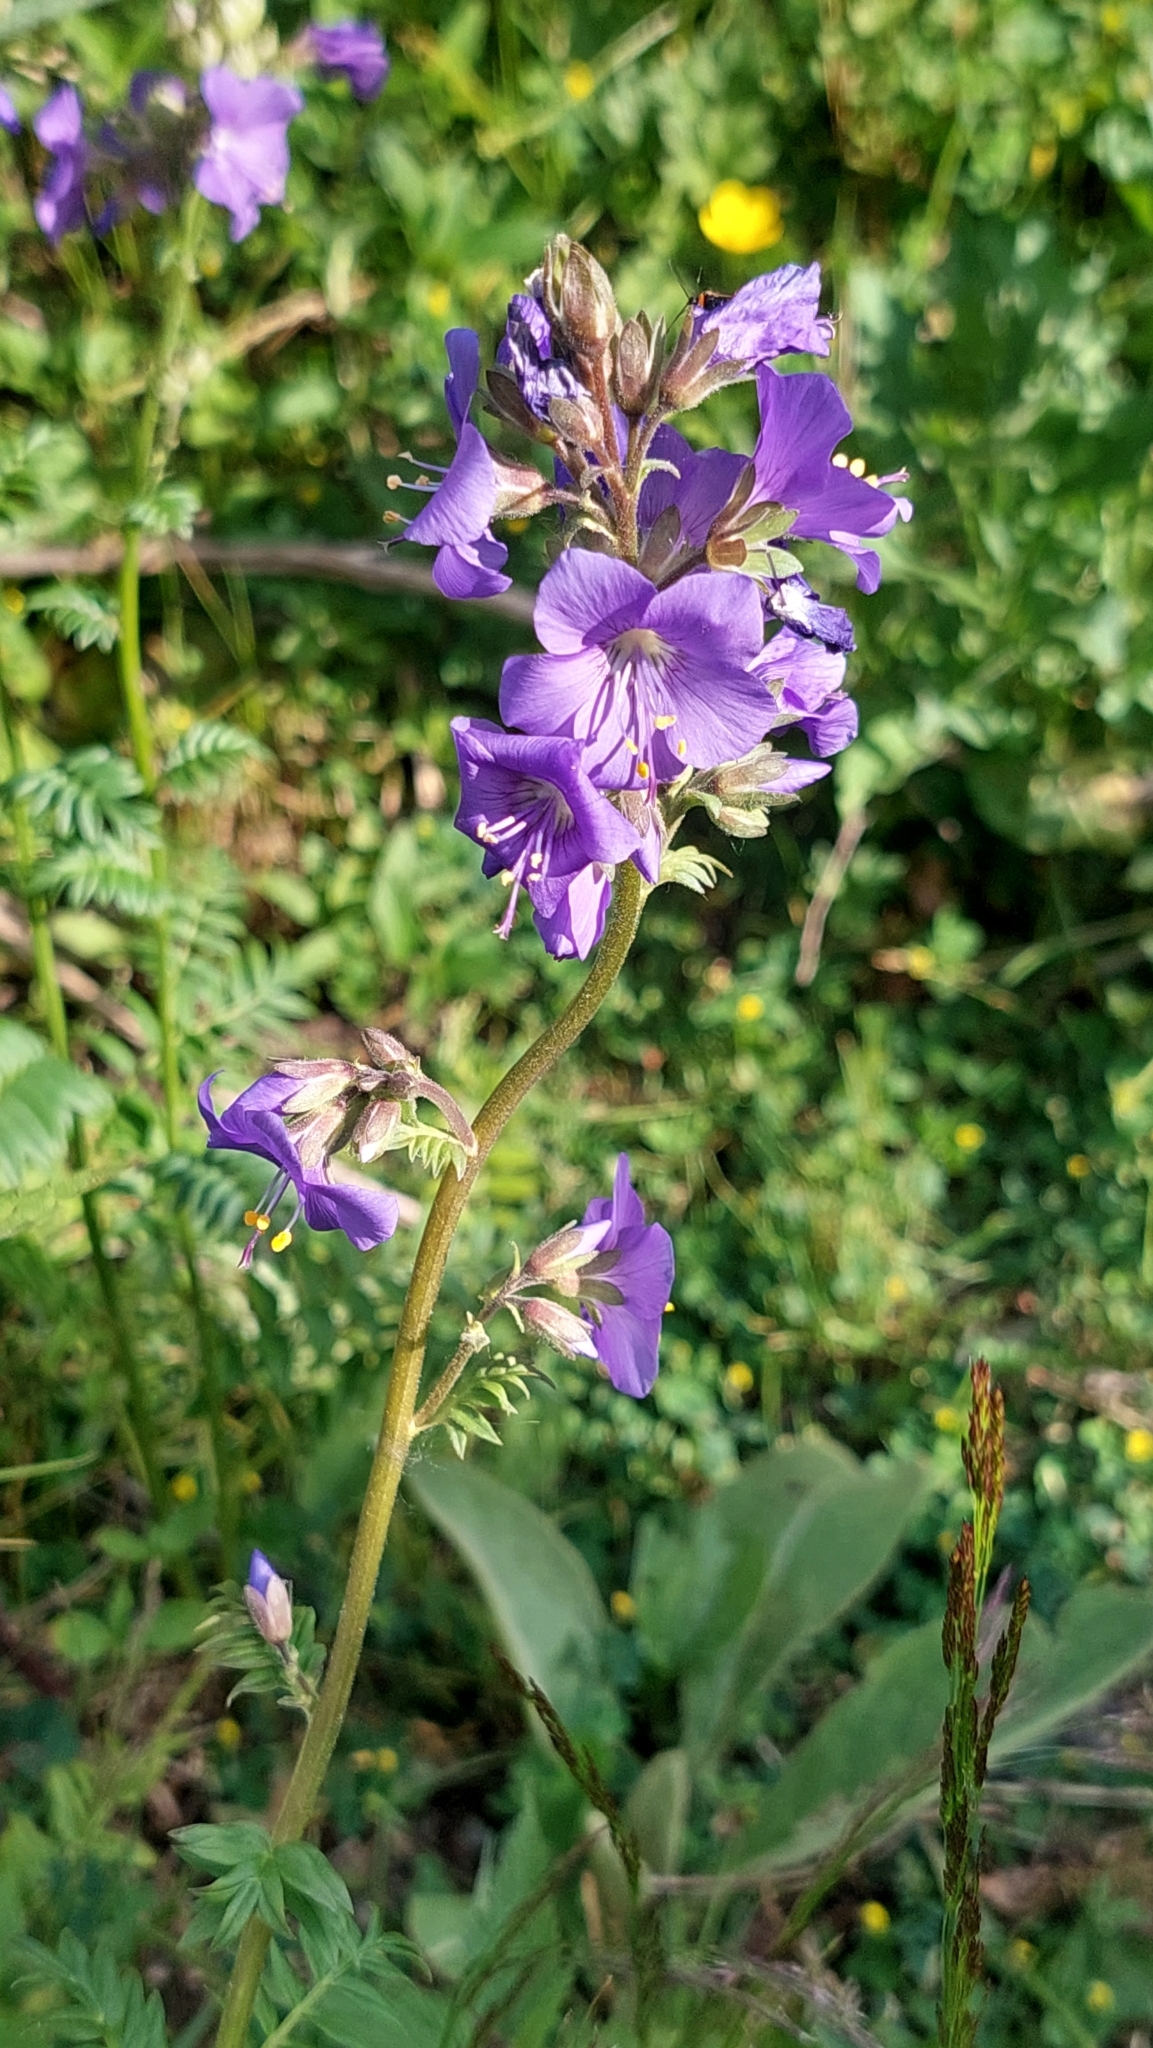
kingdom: Plantae
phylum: Tracheophyta
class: Magnoliopsida
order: Ericales
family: Polemoniaceae
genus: Polemonium
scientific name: Polemonium caeruleum
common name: Jacob's-ladder
